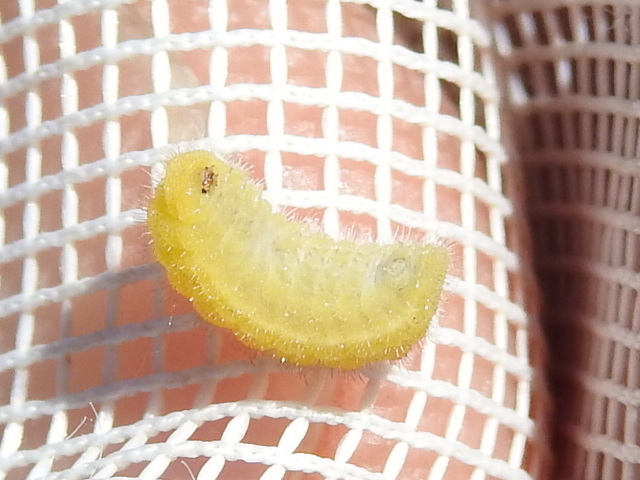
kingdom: Animalia
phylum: Arthropoda
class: Insecta
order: Lepidoptera
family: Lycaenidae
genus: Thecla
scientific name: Thecla irus
